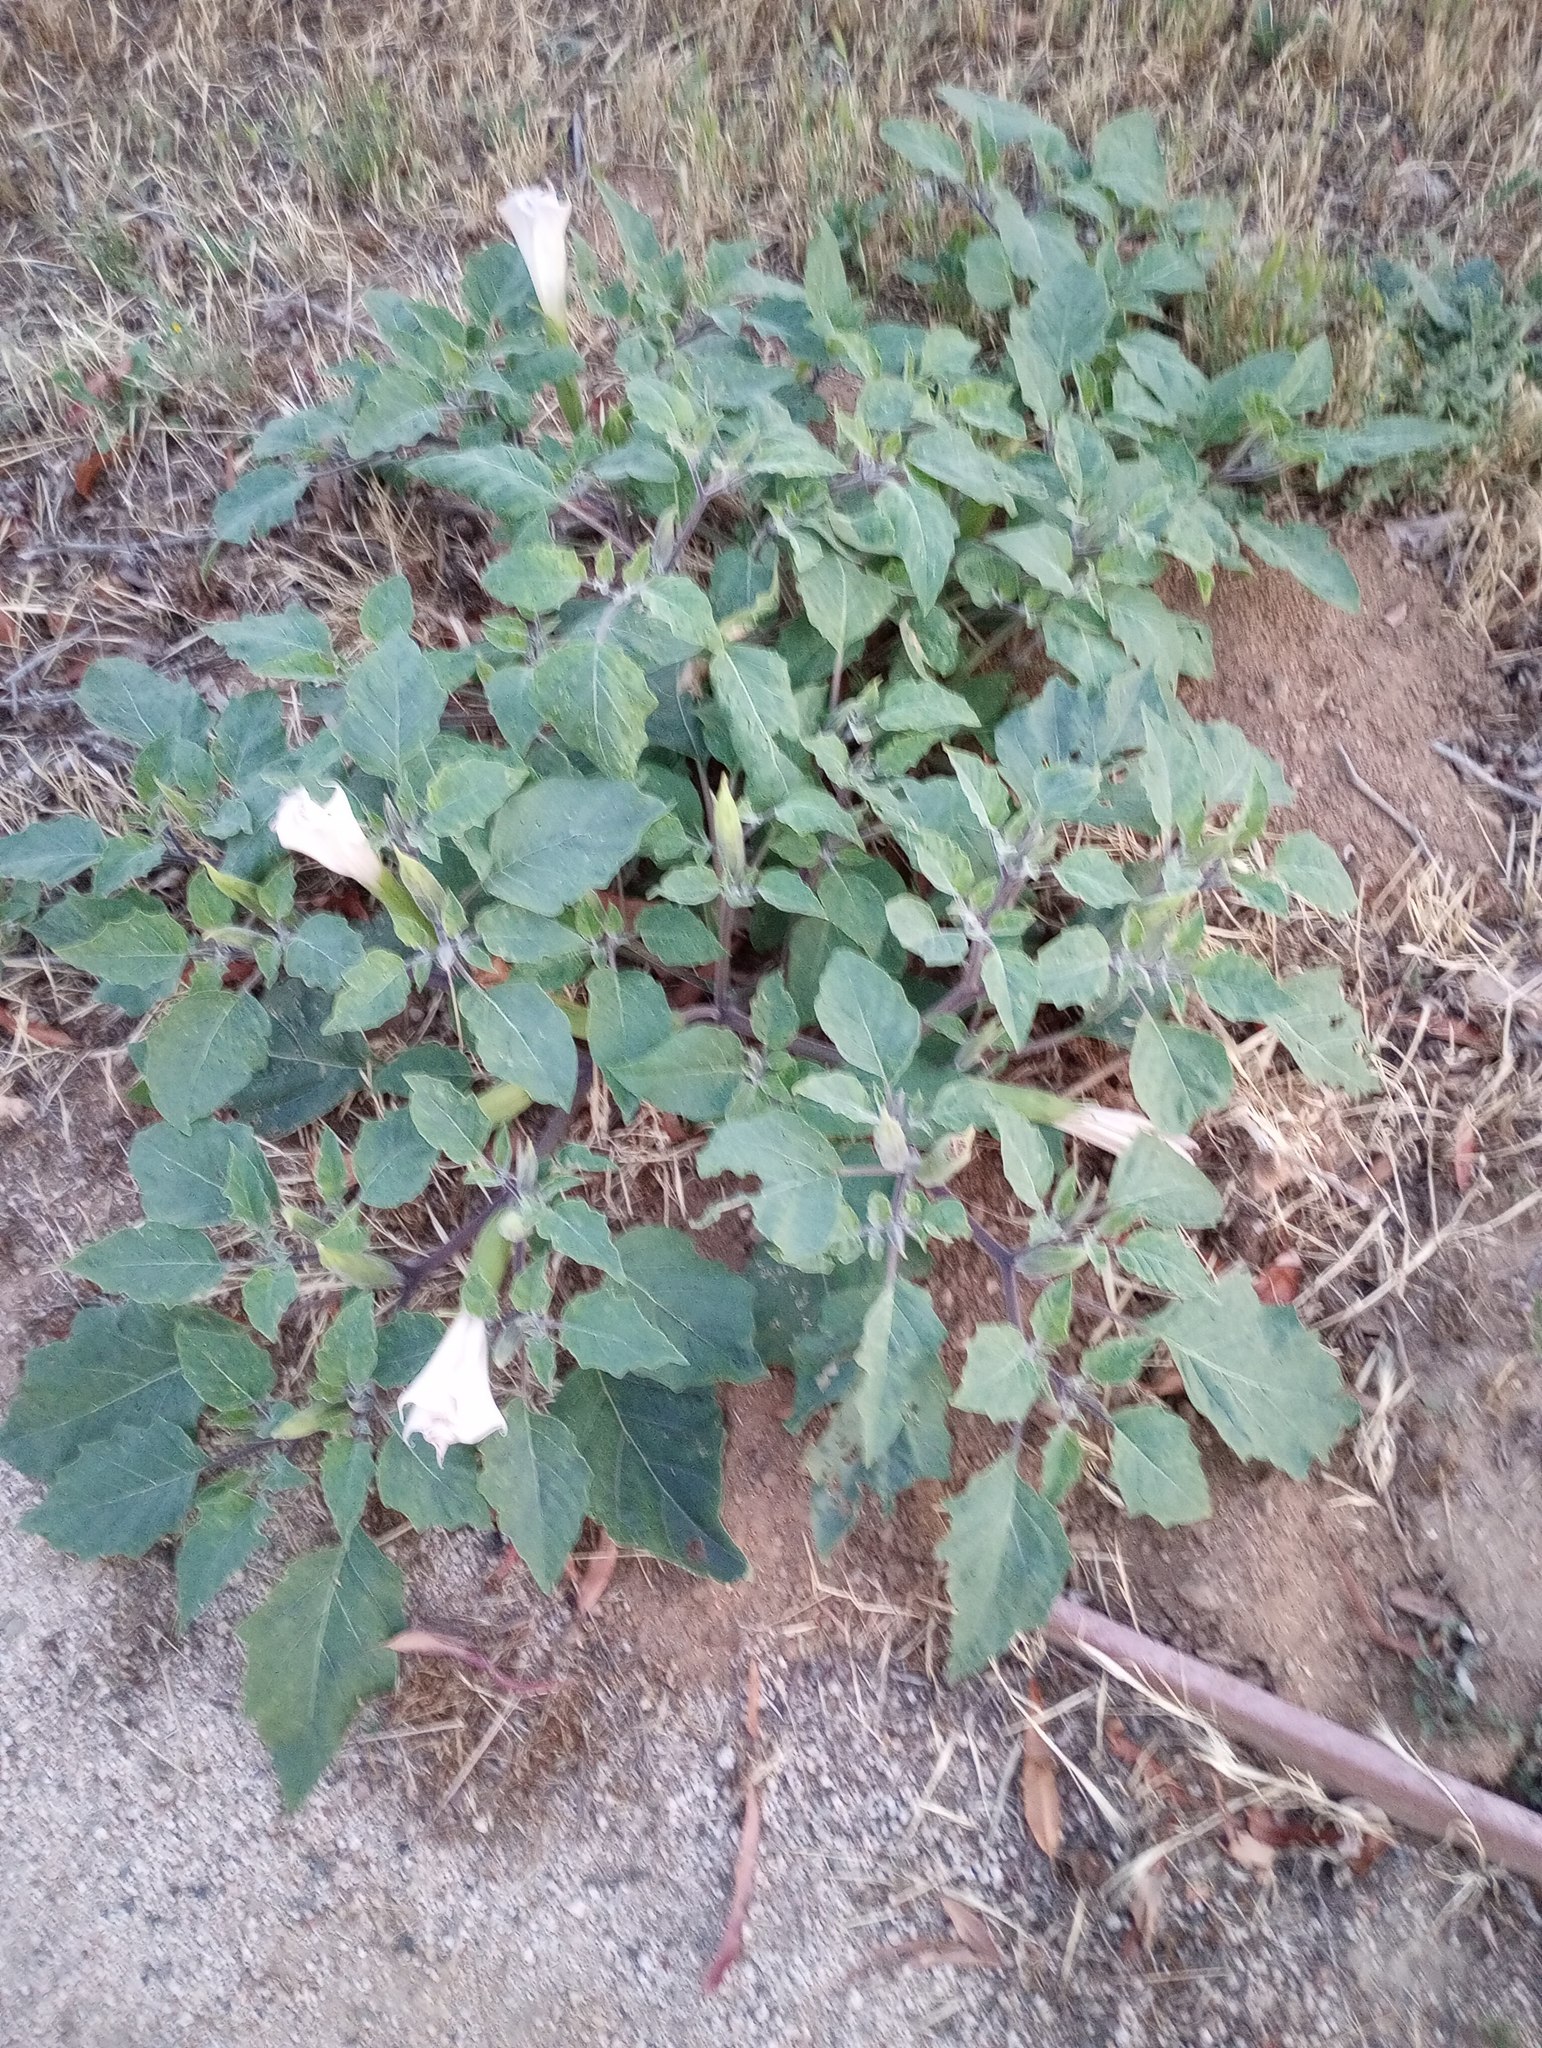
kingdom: Plantae
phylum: Tracheophyta
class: Magnoliopsida
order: Solanales
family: Solanaceae
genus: Datura
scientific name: Datura wrightii
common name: Sacred thorn-apple
